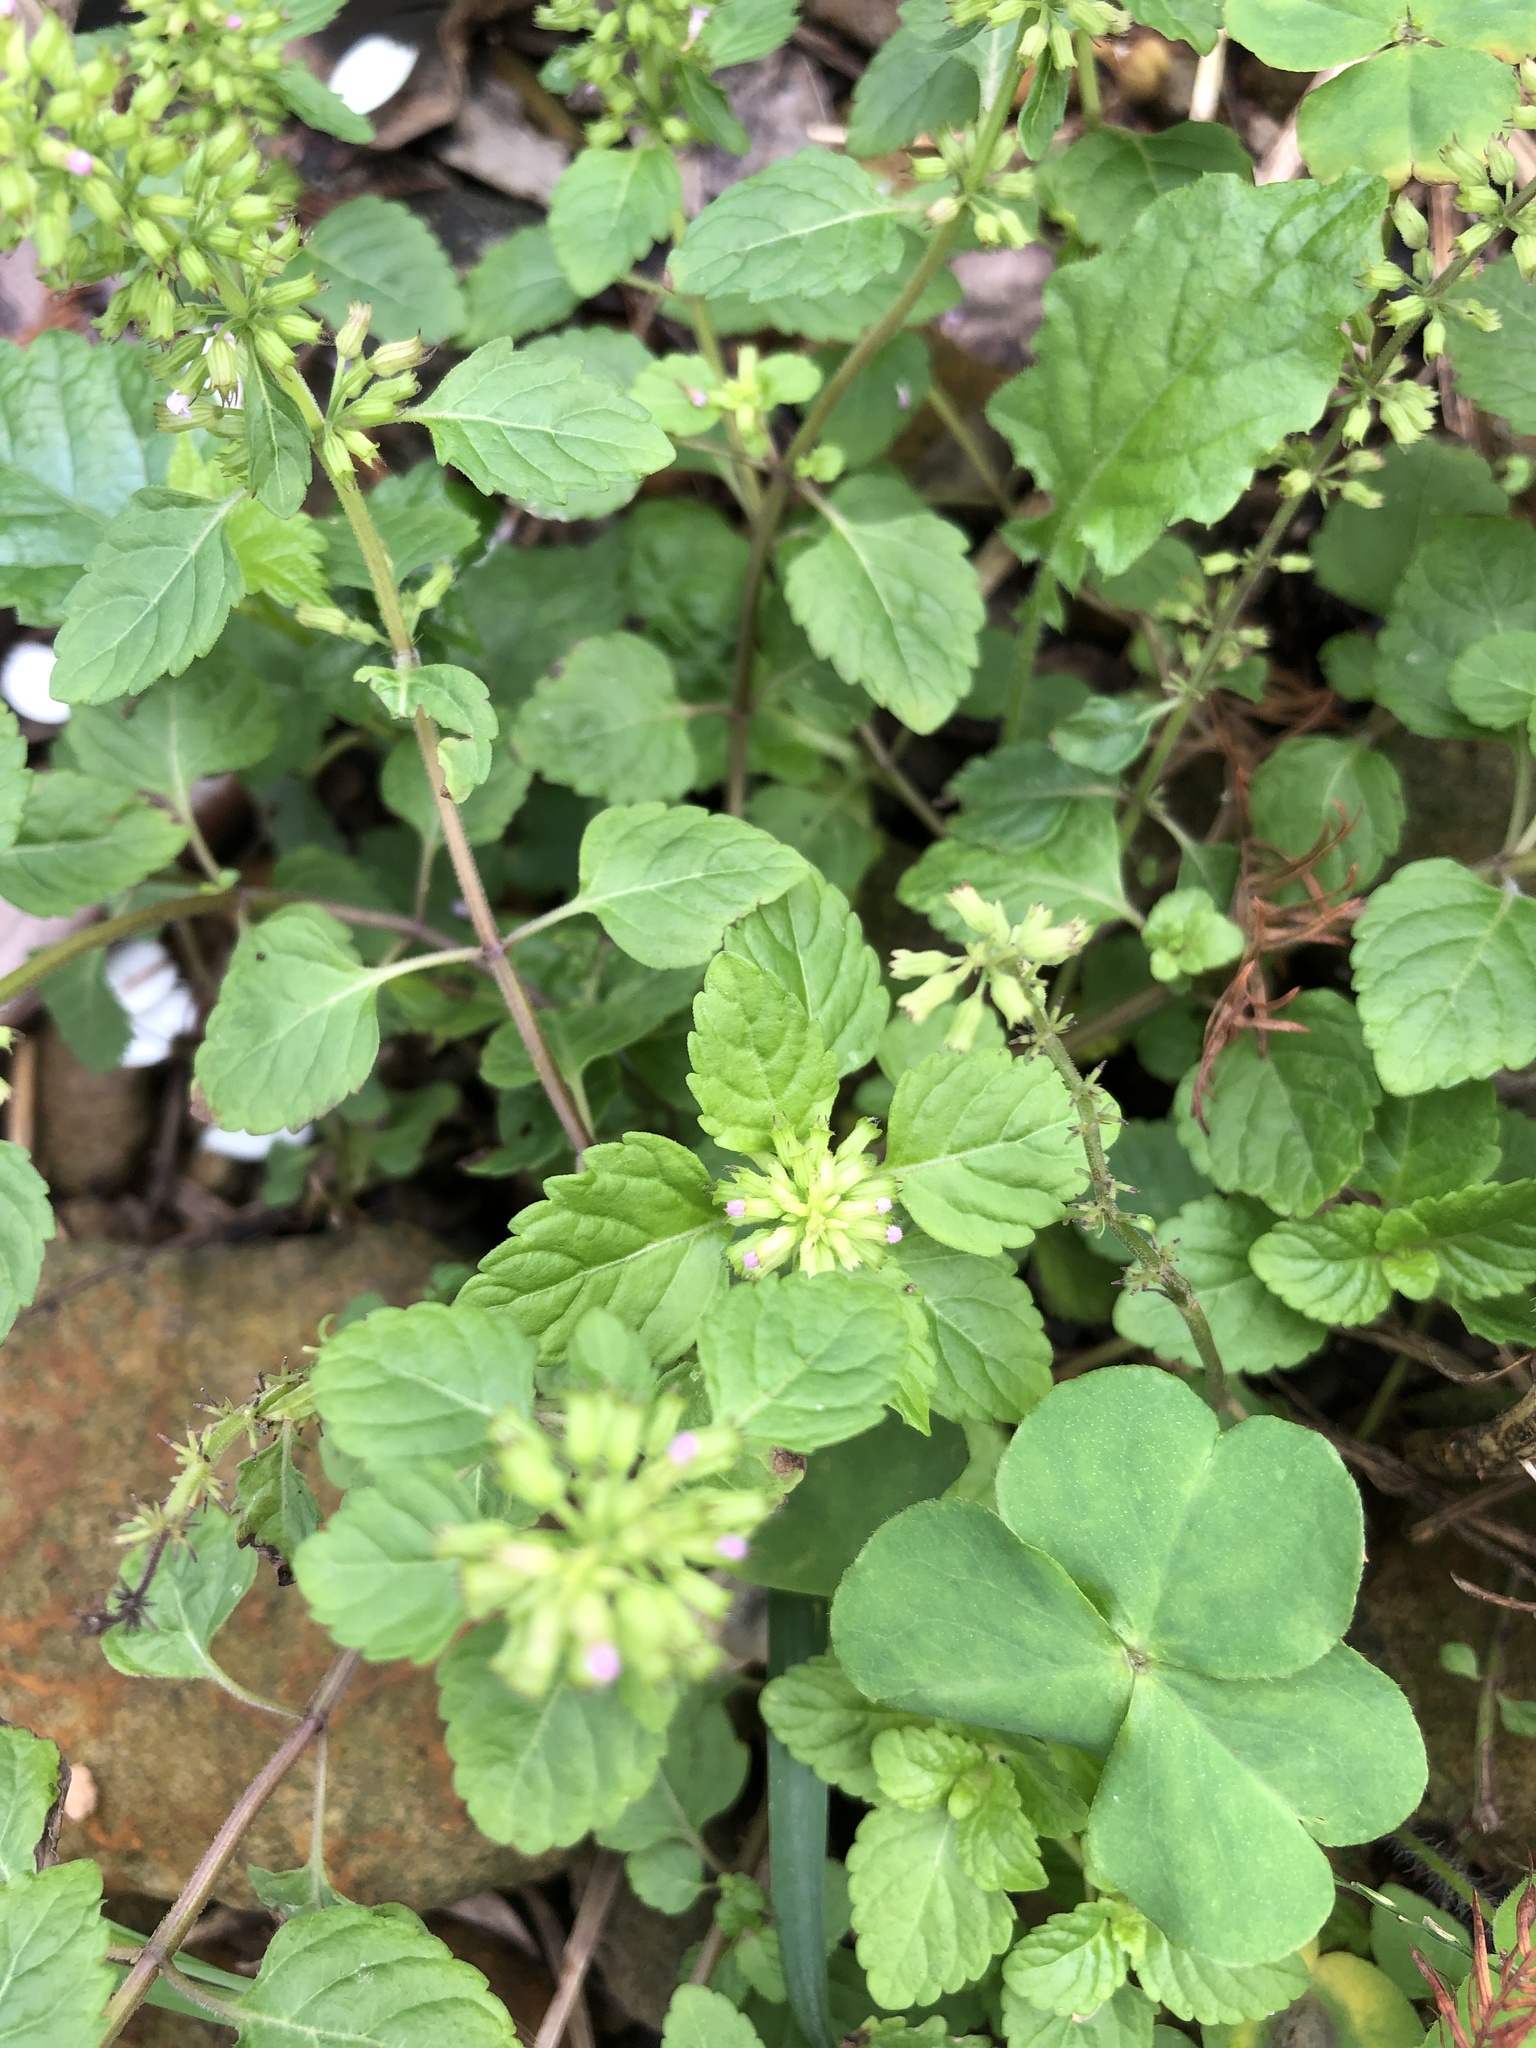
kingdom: Plantae
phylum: Tracheophyta
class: Magnoliopsida
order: Lamiales
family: Lamiaceae
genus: Clinopodium
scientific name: Clinopodium gracile
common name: Slender wild basil
